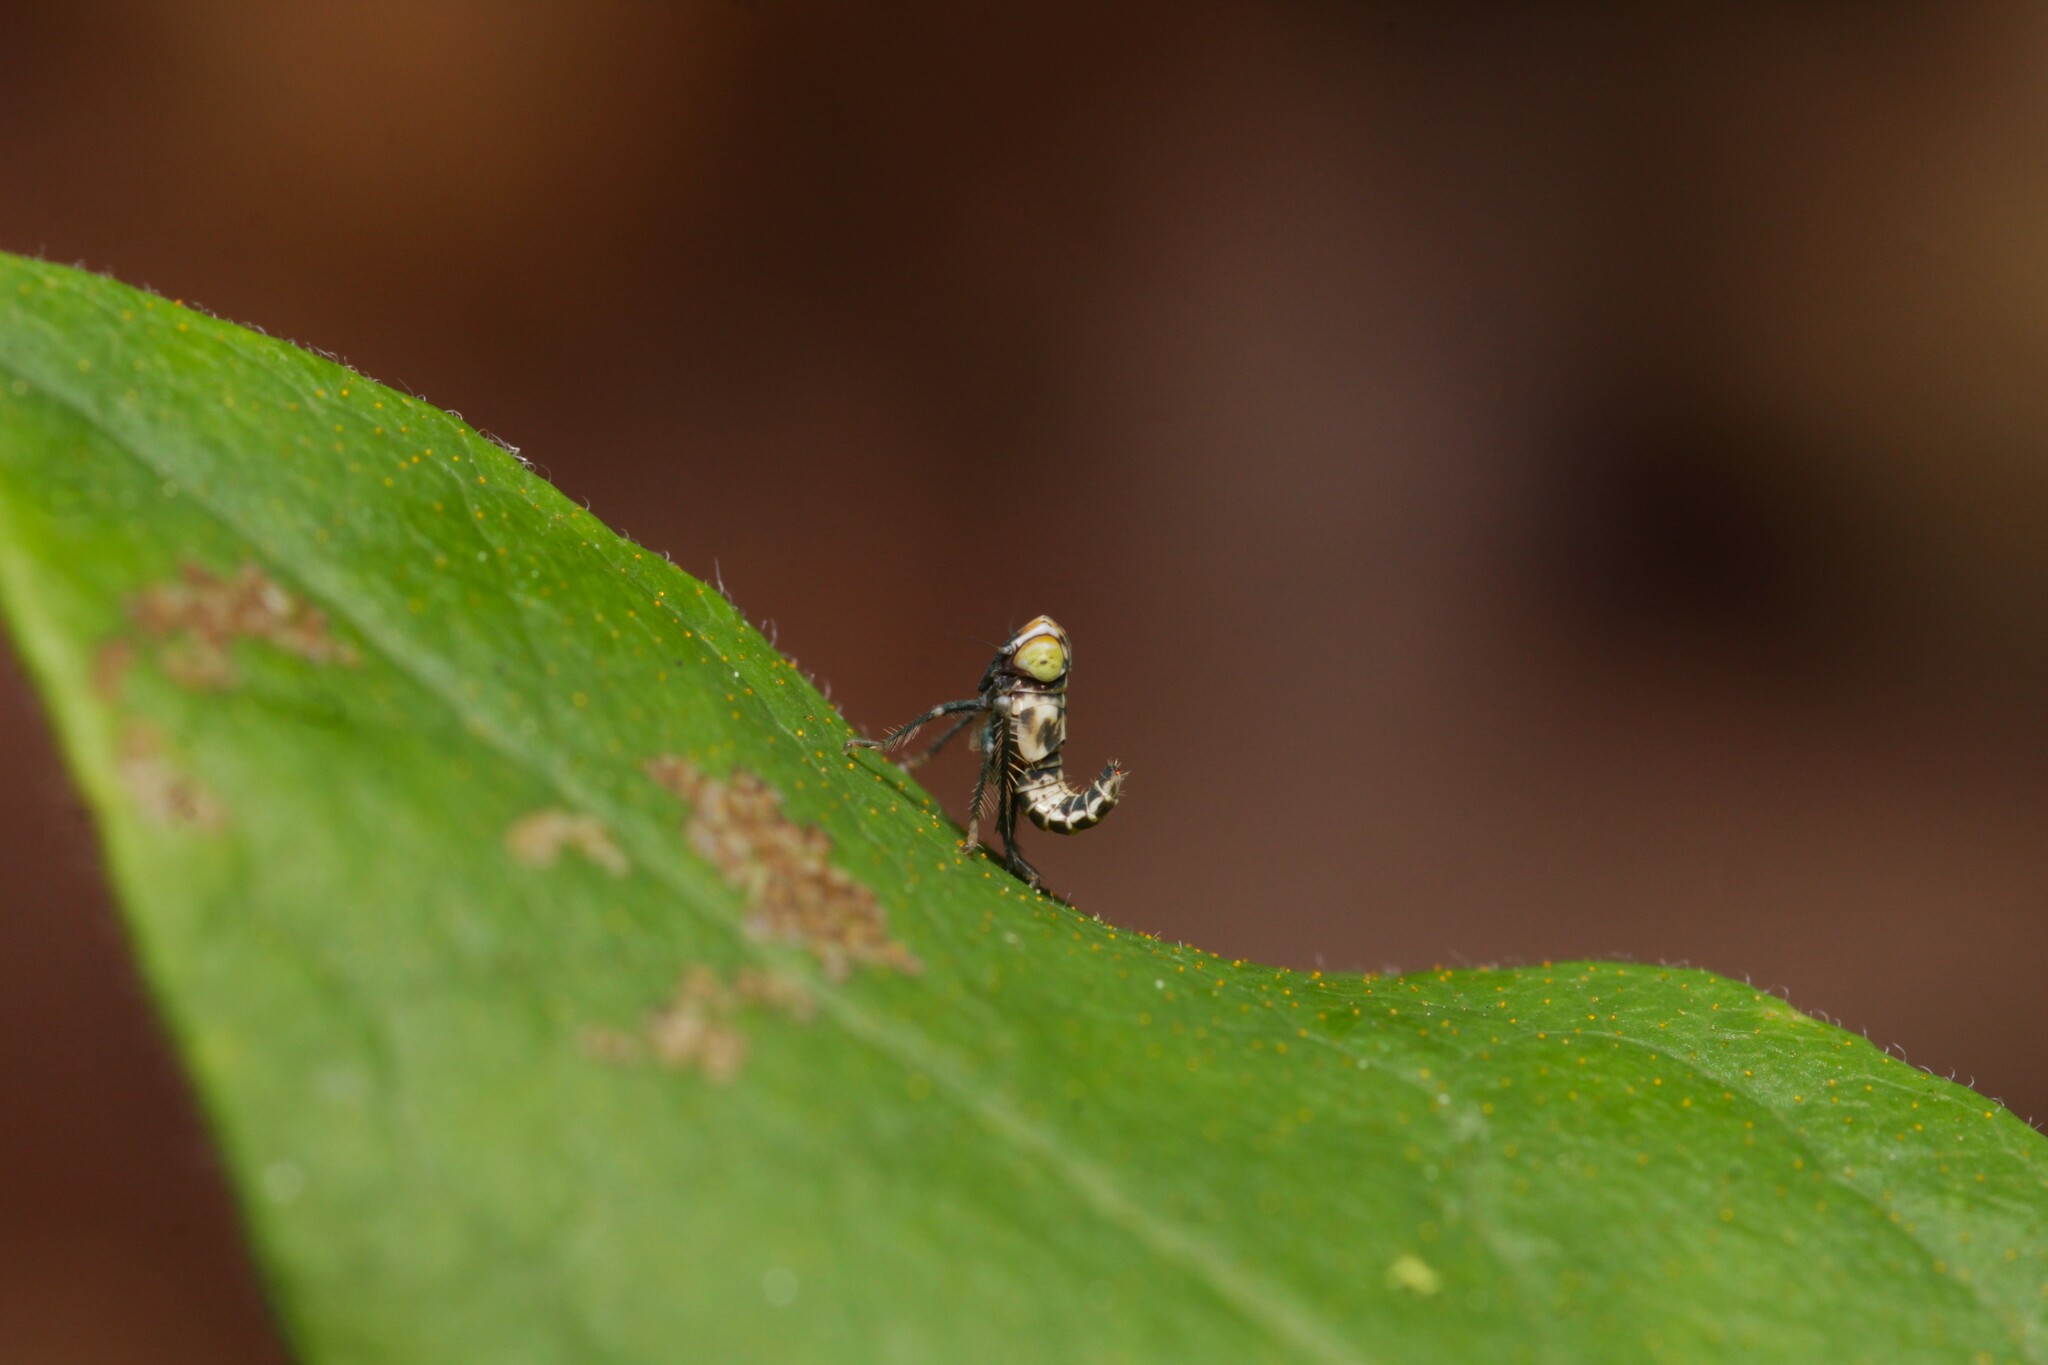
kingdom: Animalia
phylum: Arthropoda
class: Insecta
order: Hemiptera
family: Cicadellidae
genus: Jikradia
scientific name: Jikradia olitoria
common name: Coppery leafhopper
